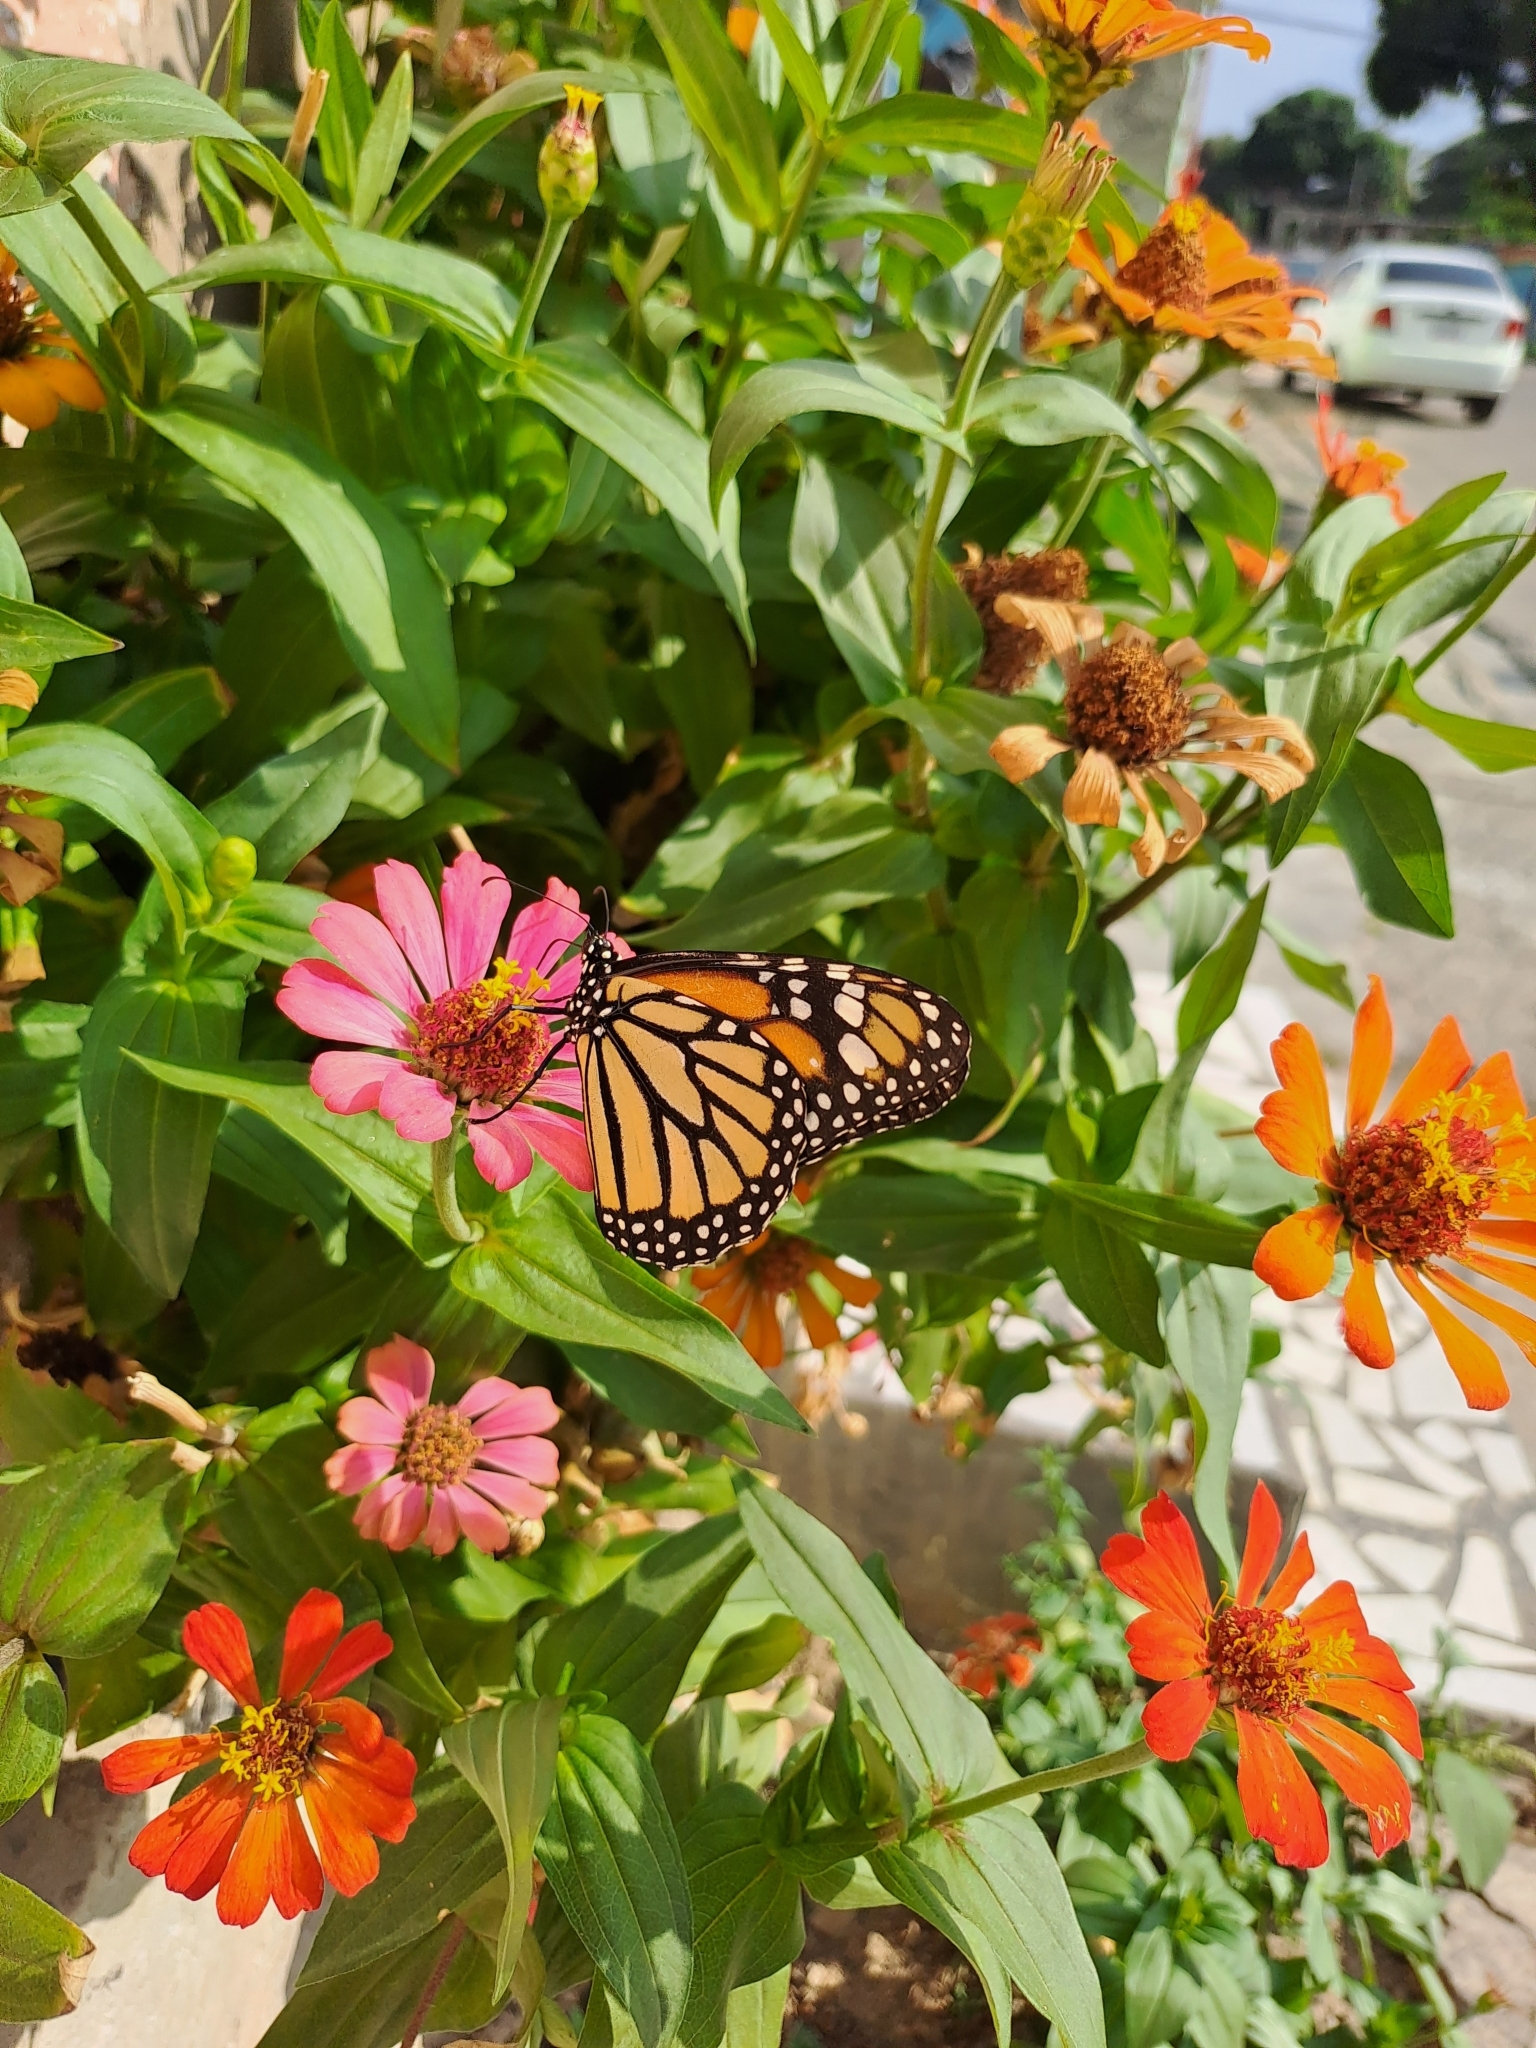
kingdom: Animalia
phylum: Arthropoda
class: Insecta
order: Lepidoptera
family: Nymphalidae
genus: Danaus
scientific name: Danaus plexippus
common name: Monarch
